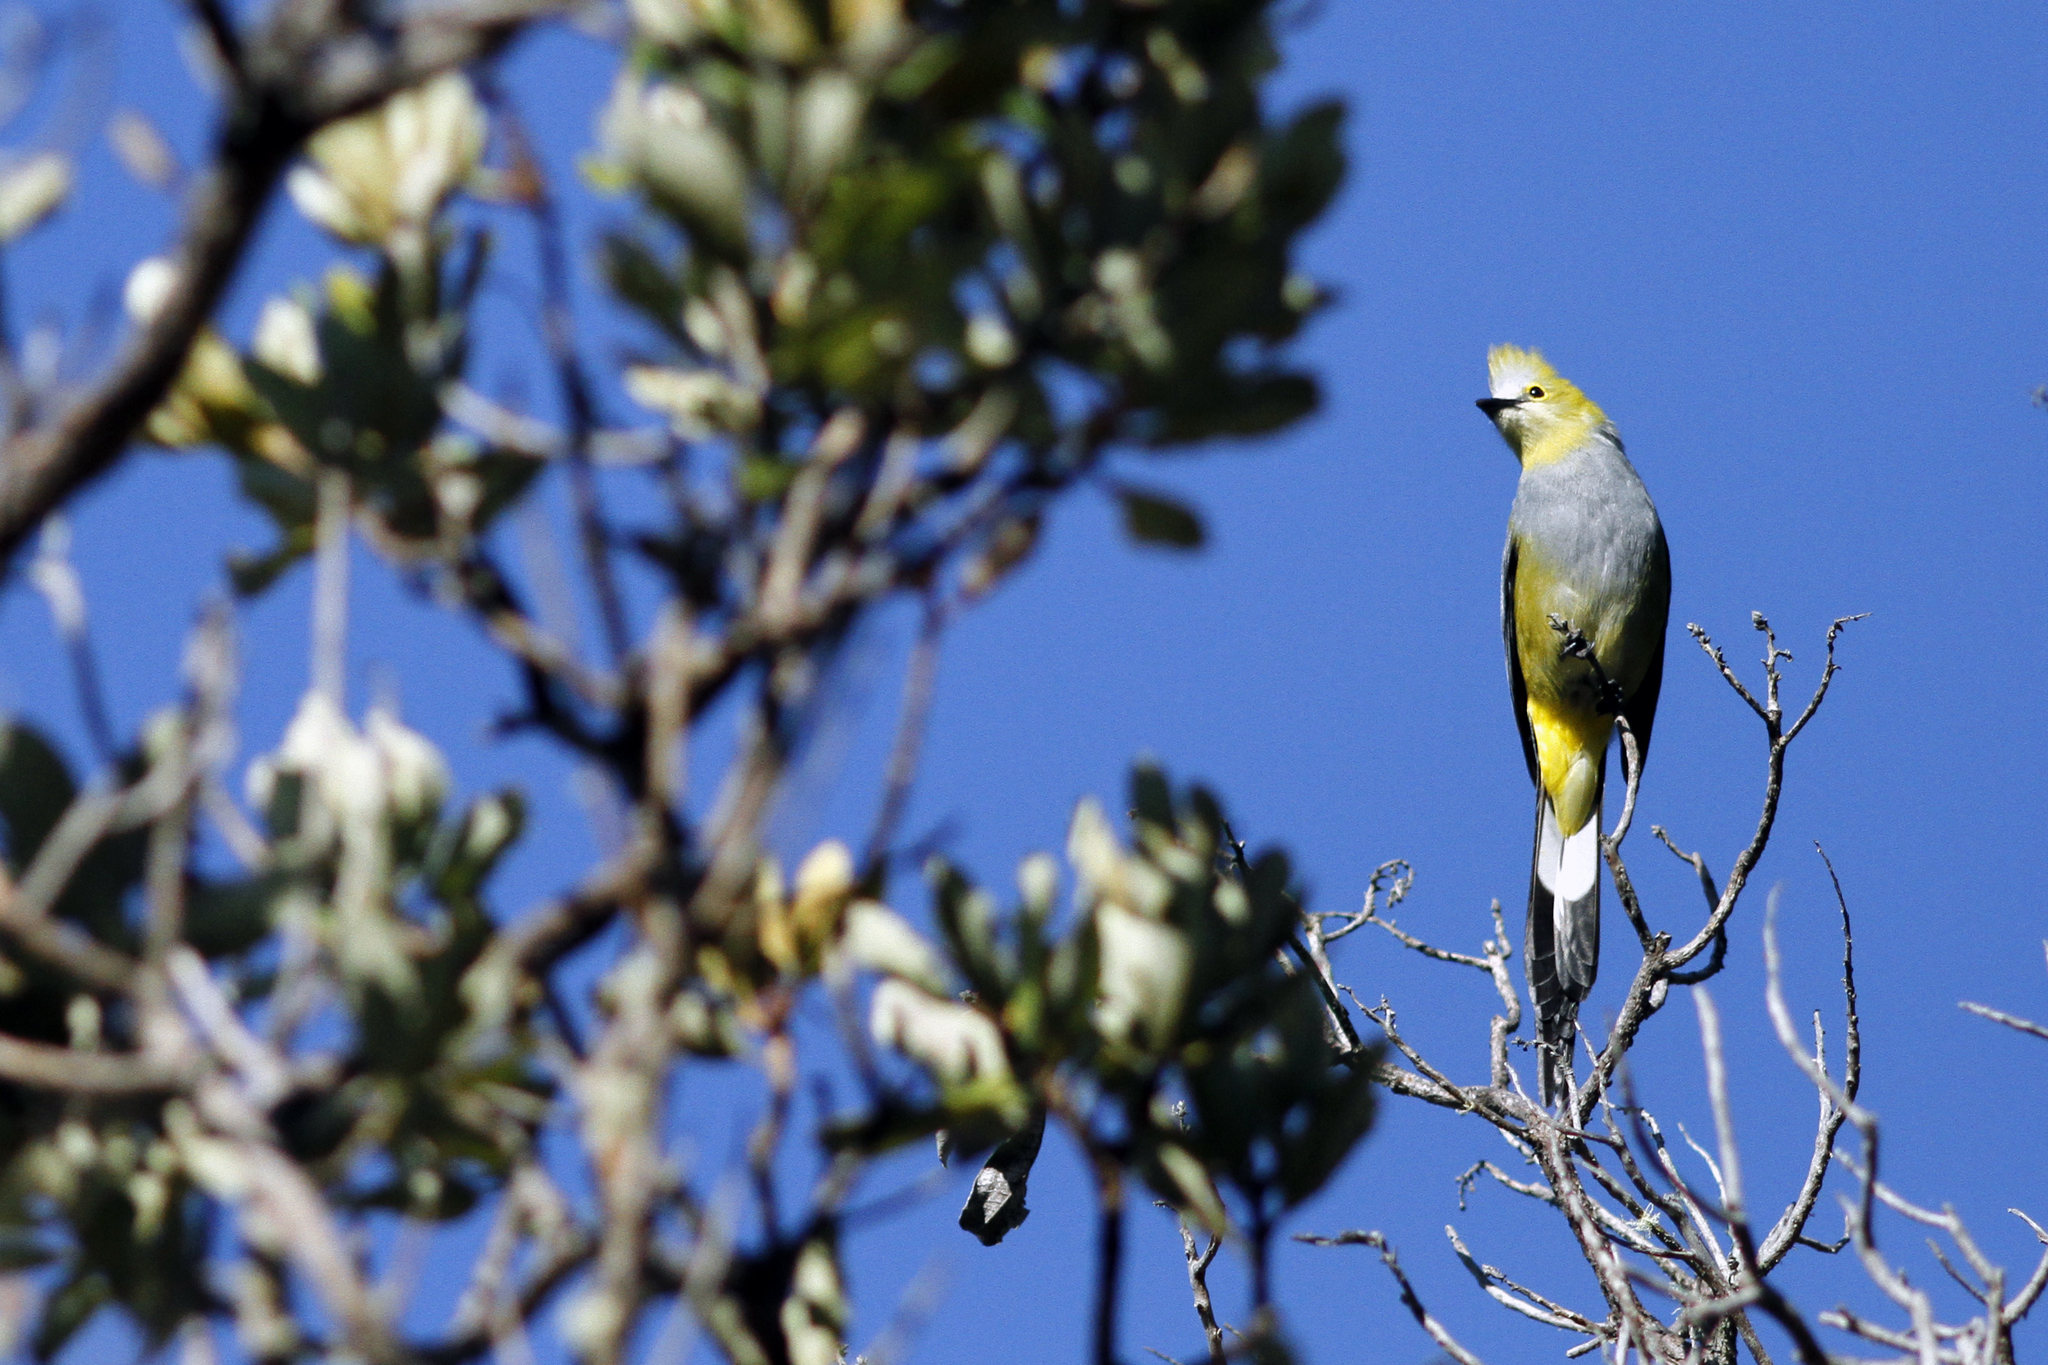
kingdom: Animalia
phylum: Chordata
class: Aves
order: Passeriformes
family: Ptilogonatidae
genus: Ptilogonys
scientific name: Ptilogonys caudatus
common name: Long-tailed silky-flycatcher
